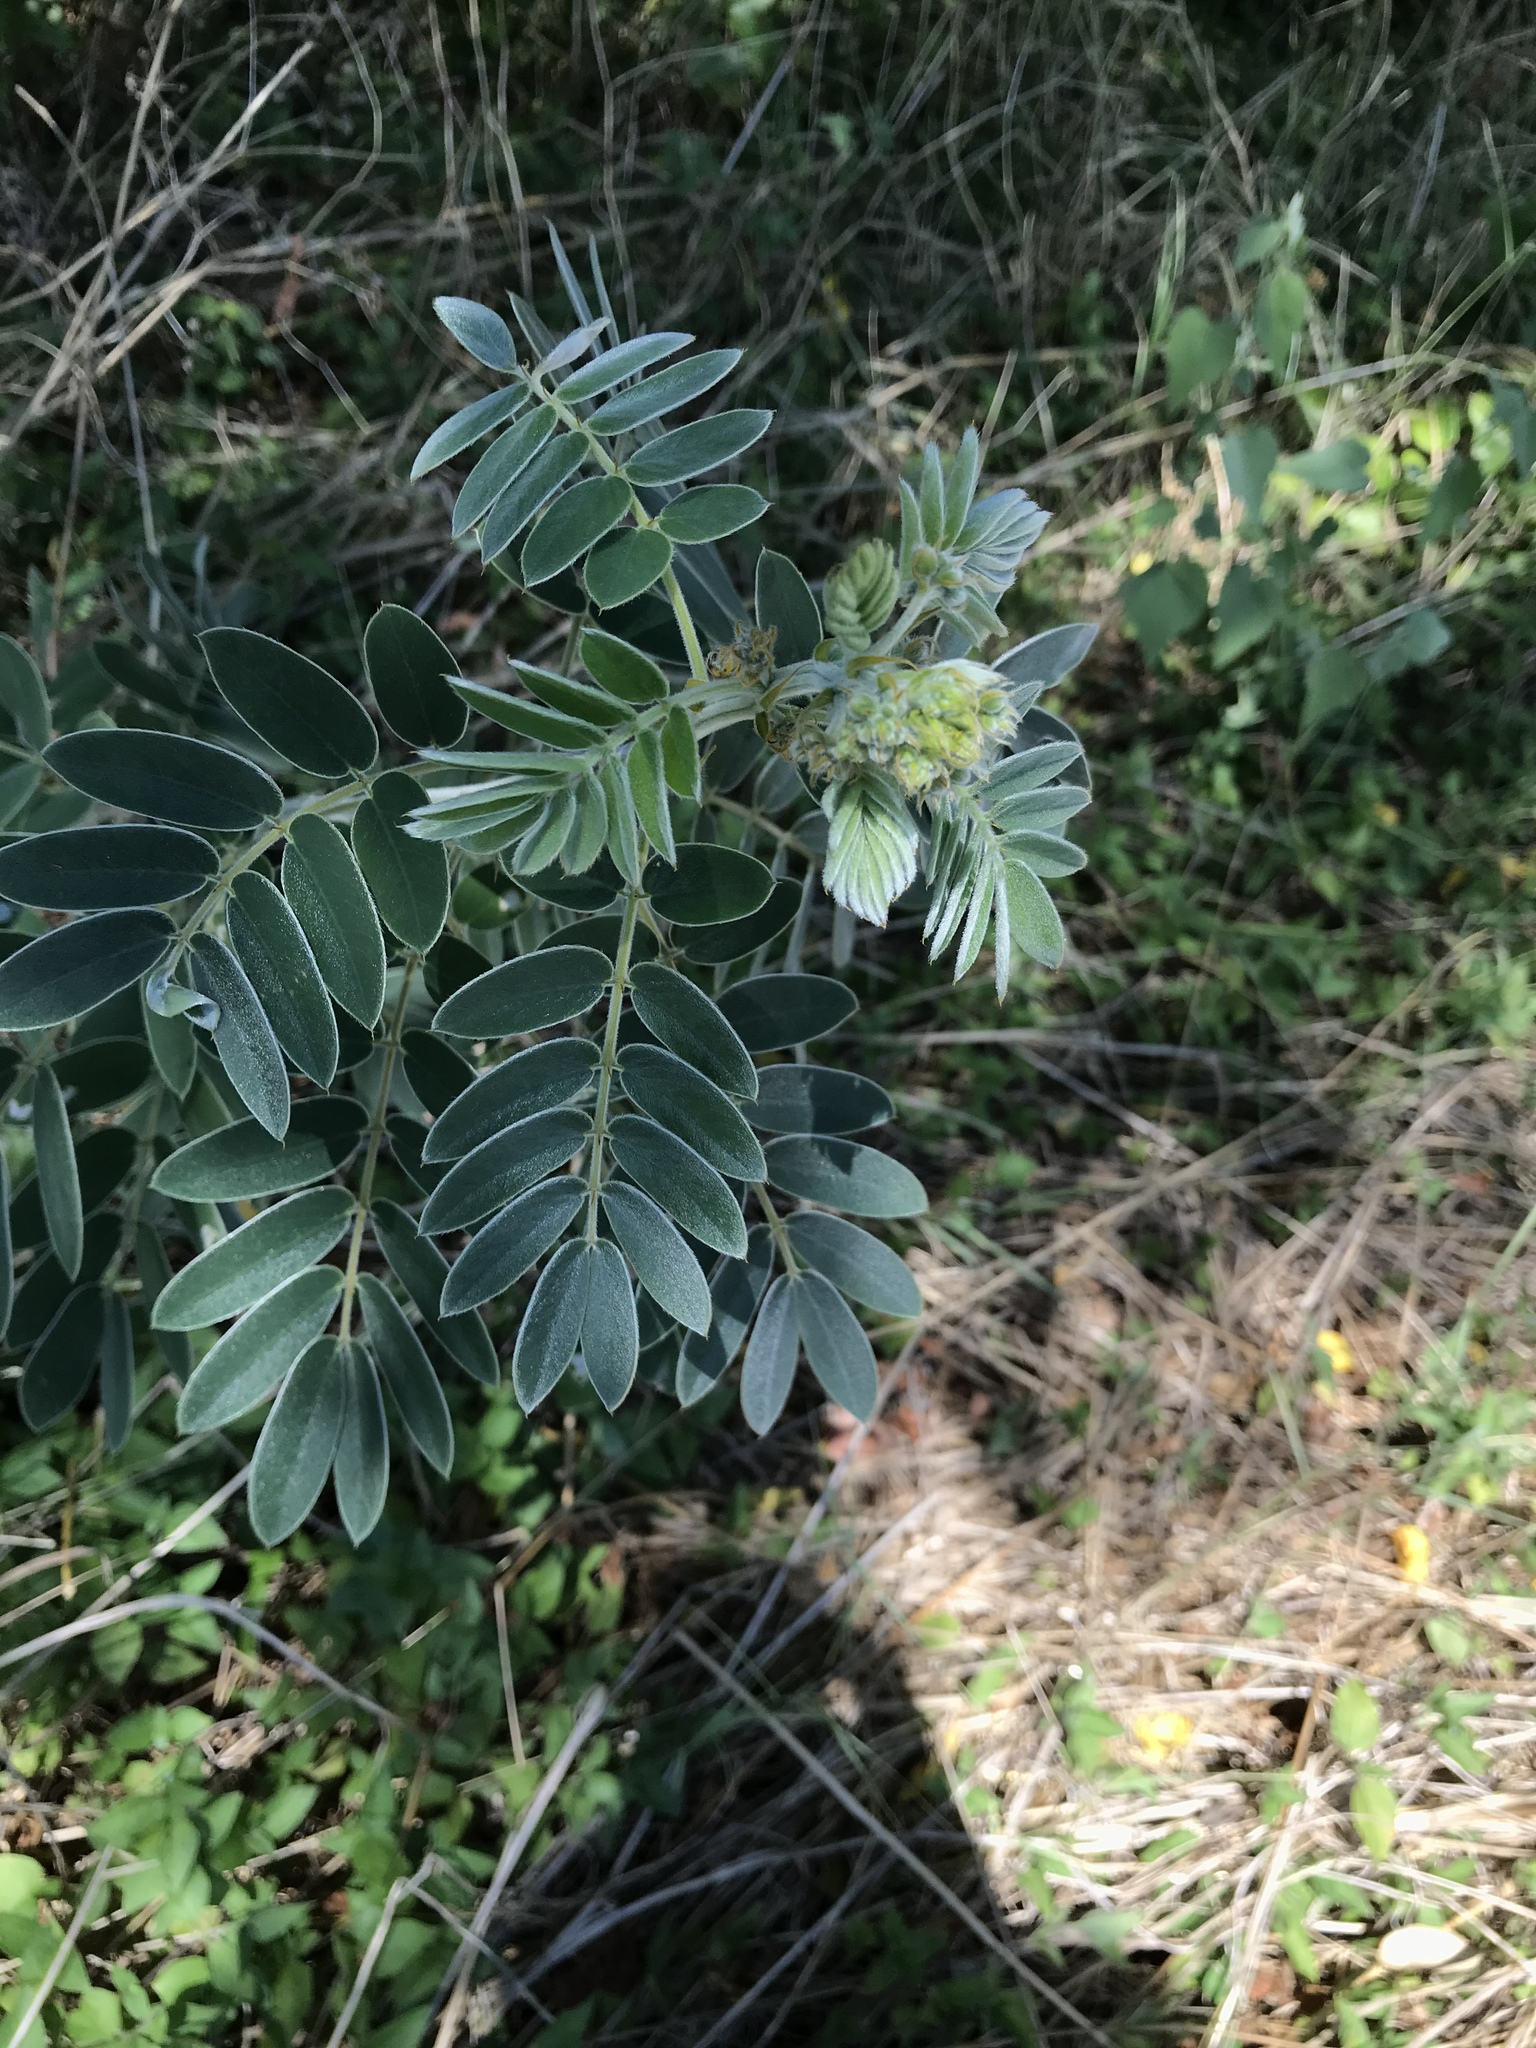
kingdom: Plantae
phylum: Tracheophyta
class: Magnoliopsida
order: Fabales
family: Fabaceae
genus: Senna
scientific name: Senna lindheimeriana
